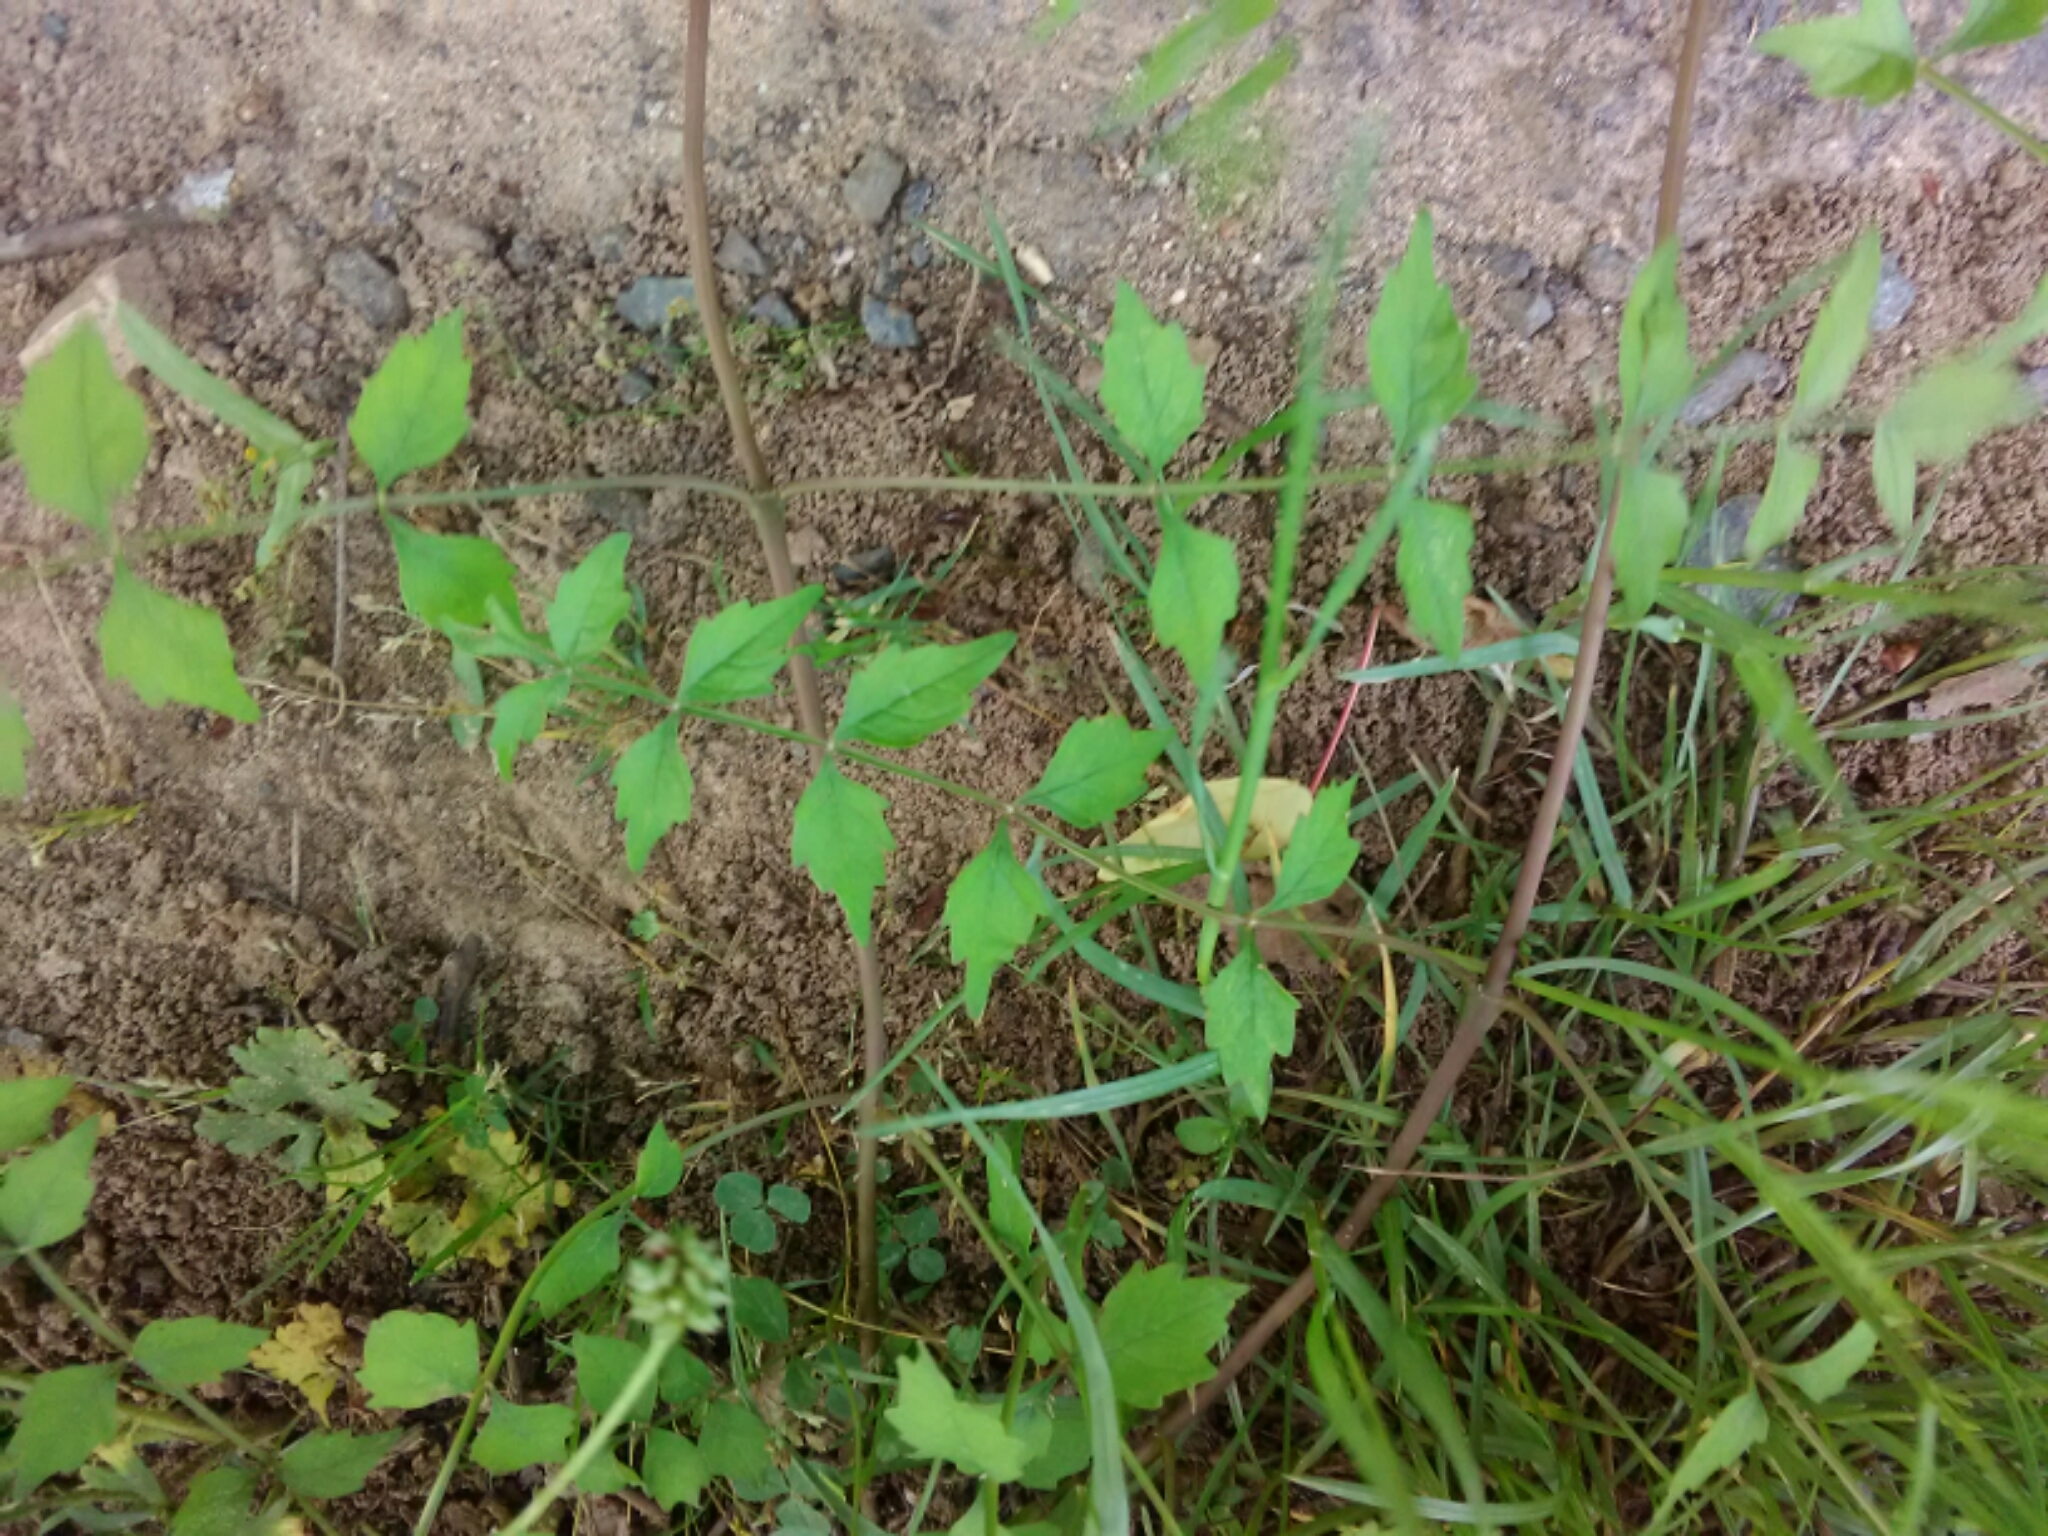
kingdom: Plantae
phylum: Tracheophyta
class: Magnoliopsida
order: Lamiales
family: Bignoniaceae
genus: Campsis
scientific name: Campsis radicans
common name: Trumpet-creeper
